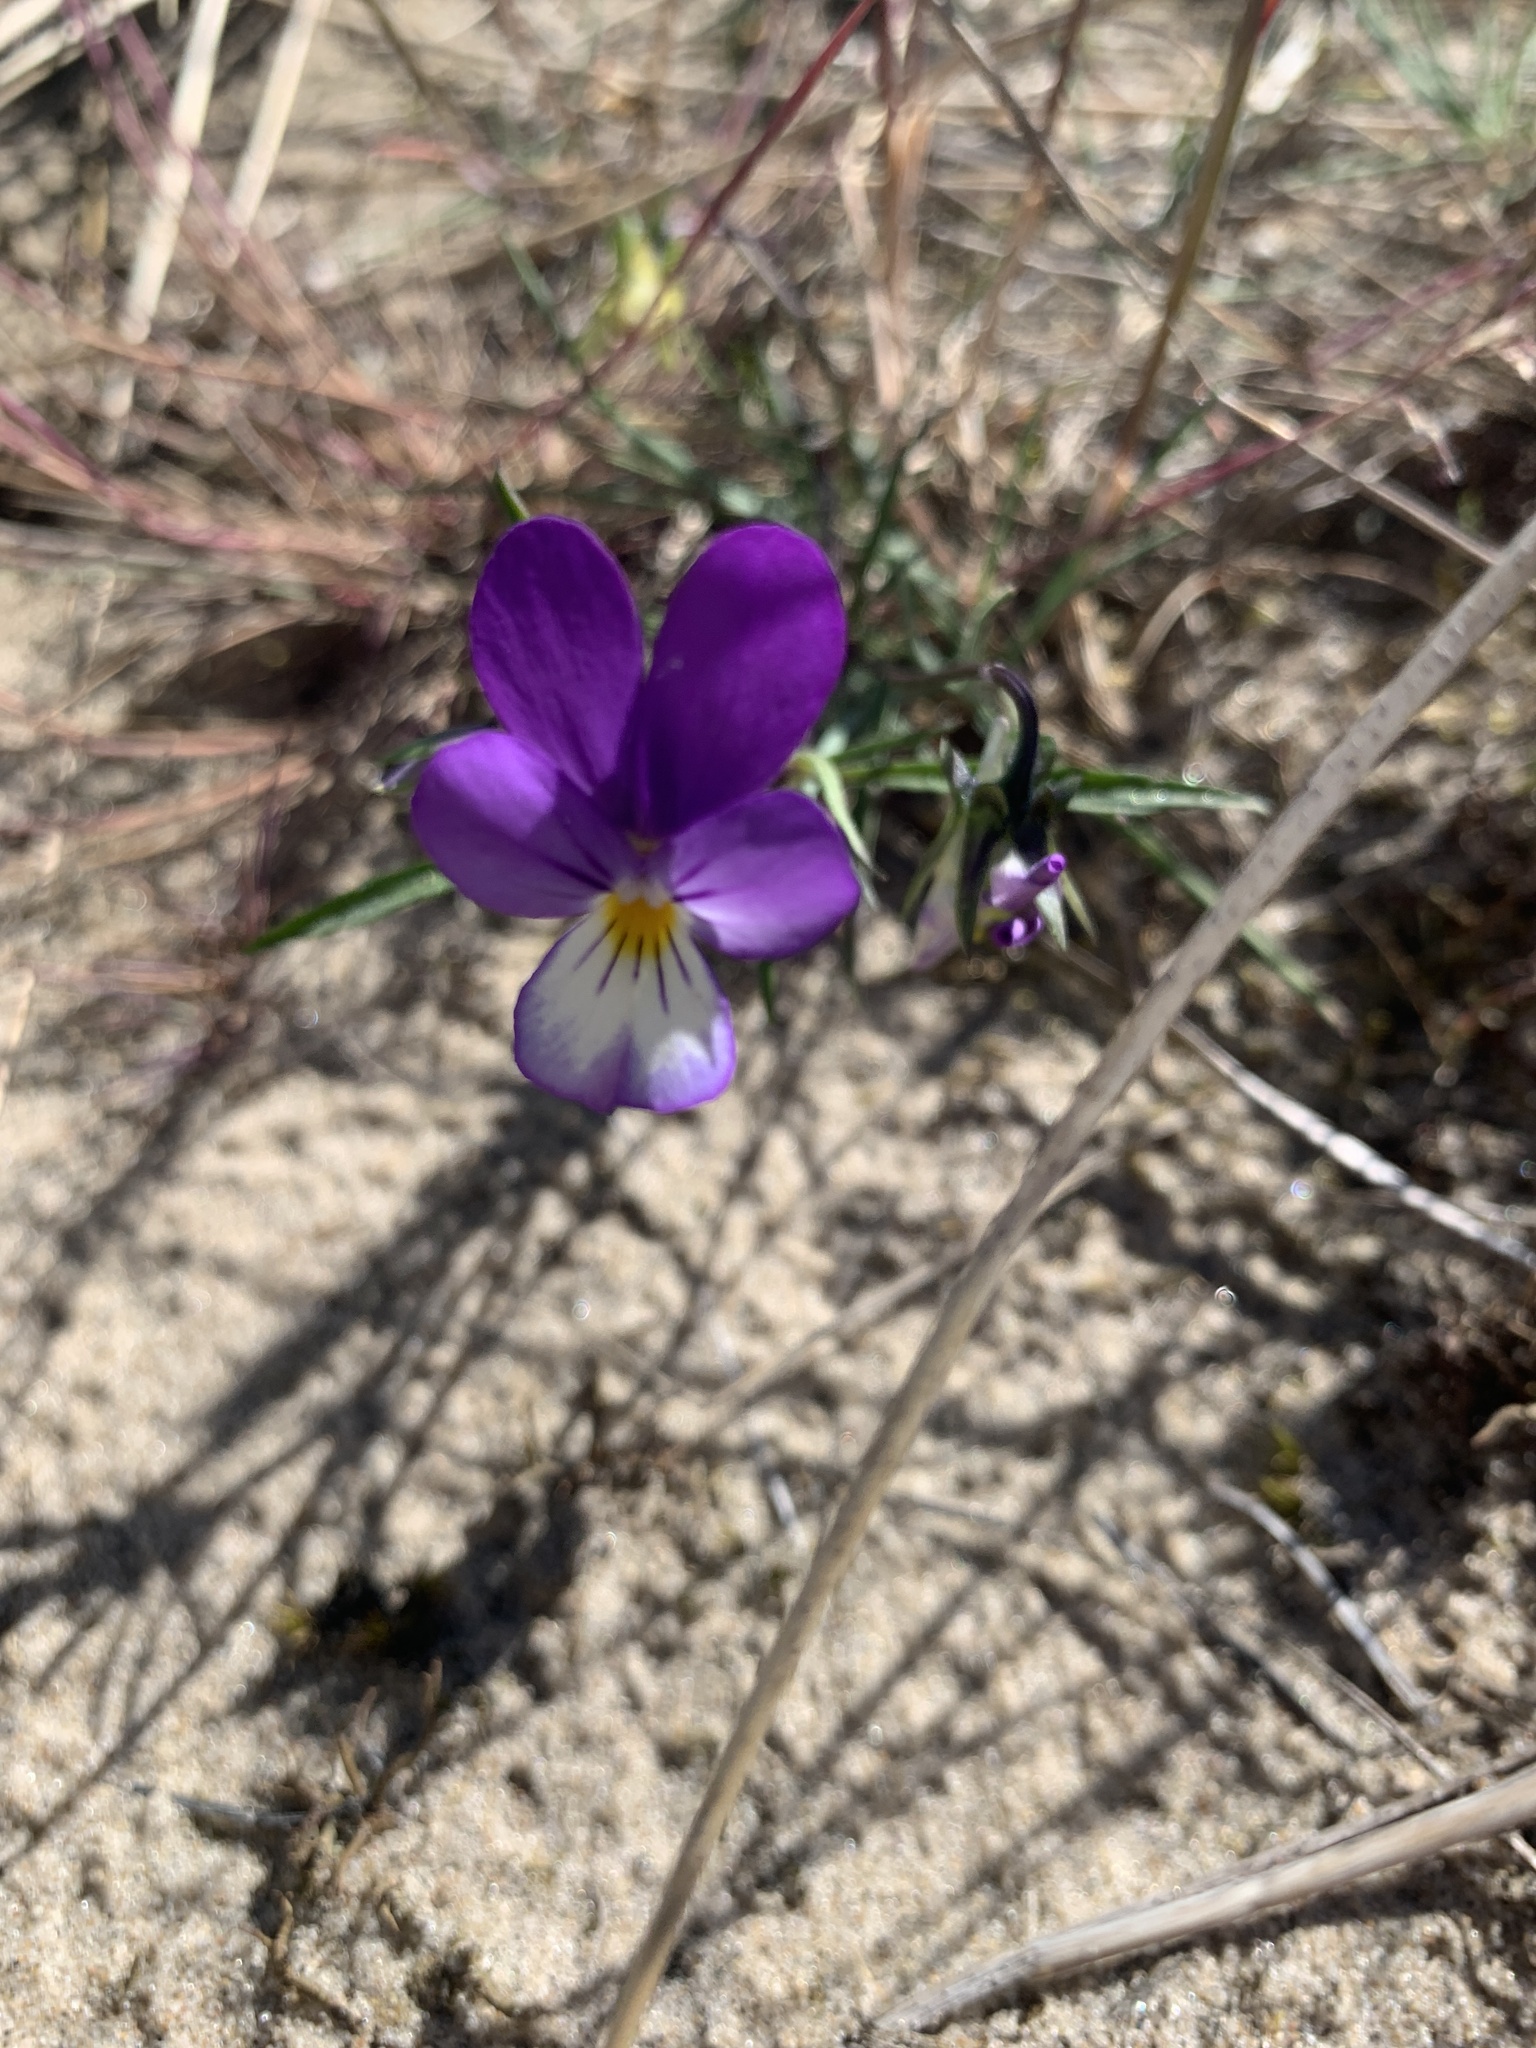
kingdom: Plantae
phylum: Tracheophyta
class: Magnoliopsida
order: Malpighiales
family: Violaceae
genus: Viola
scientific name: Viola tricolor
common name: Pansy
